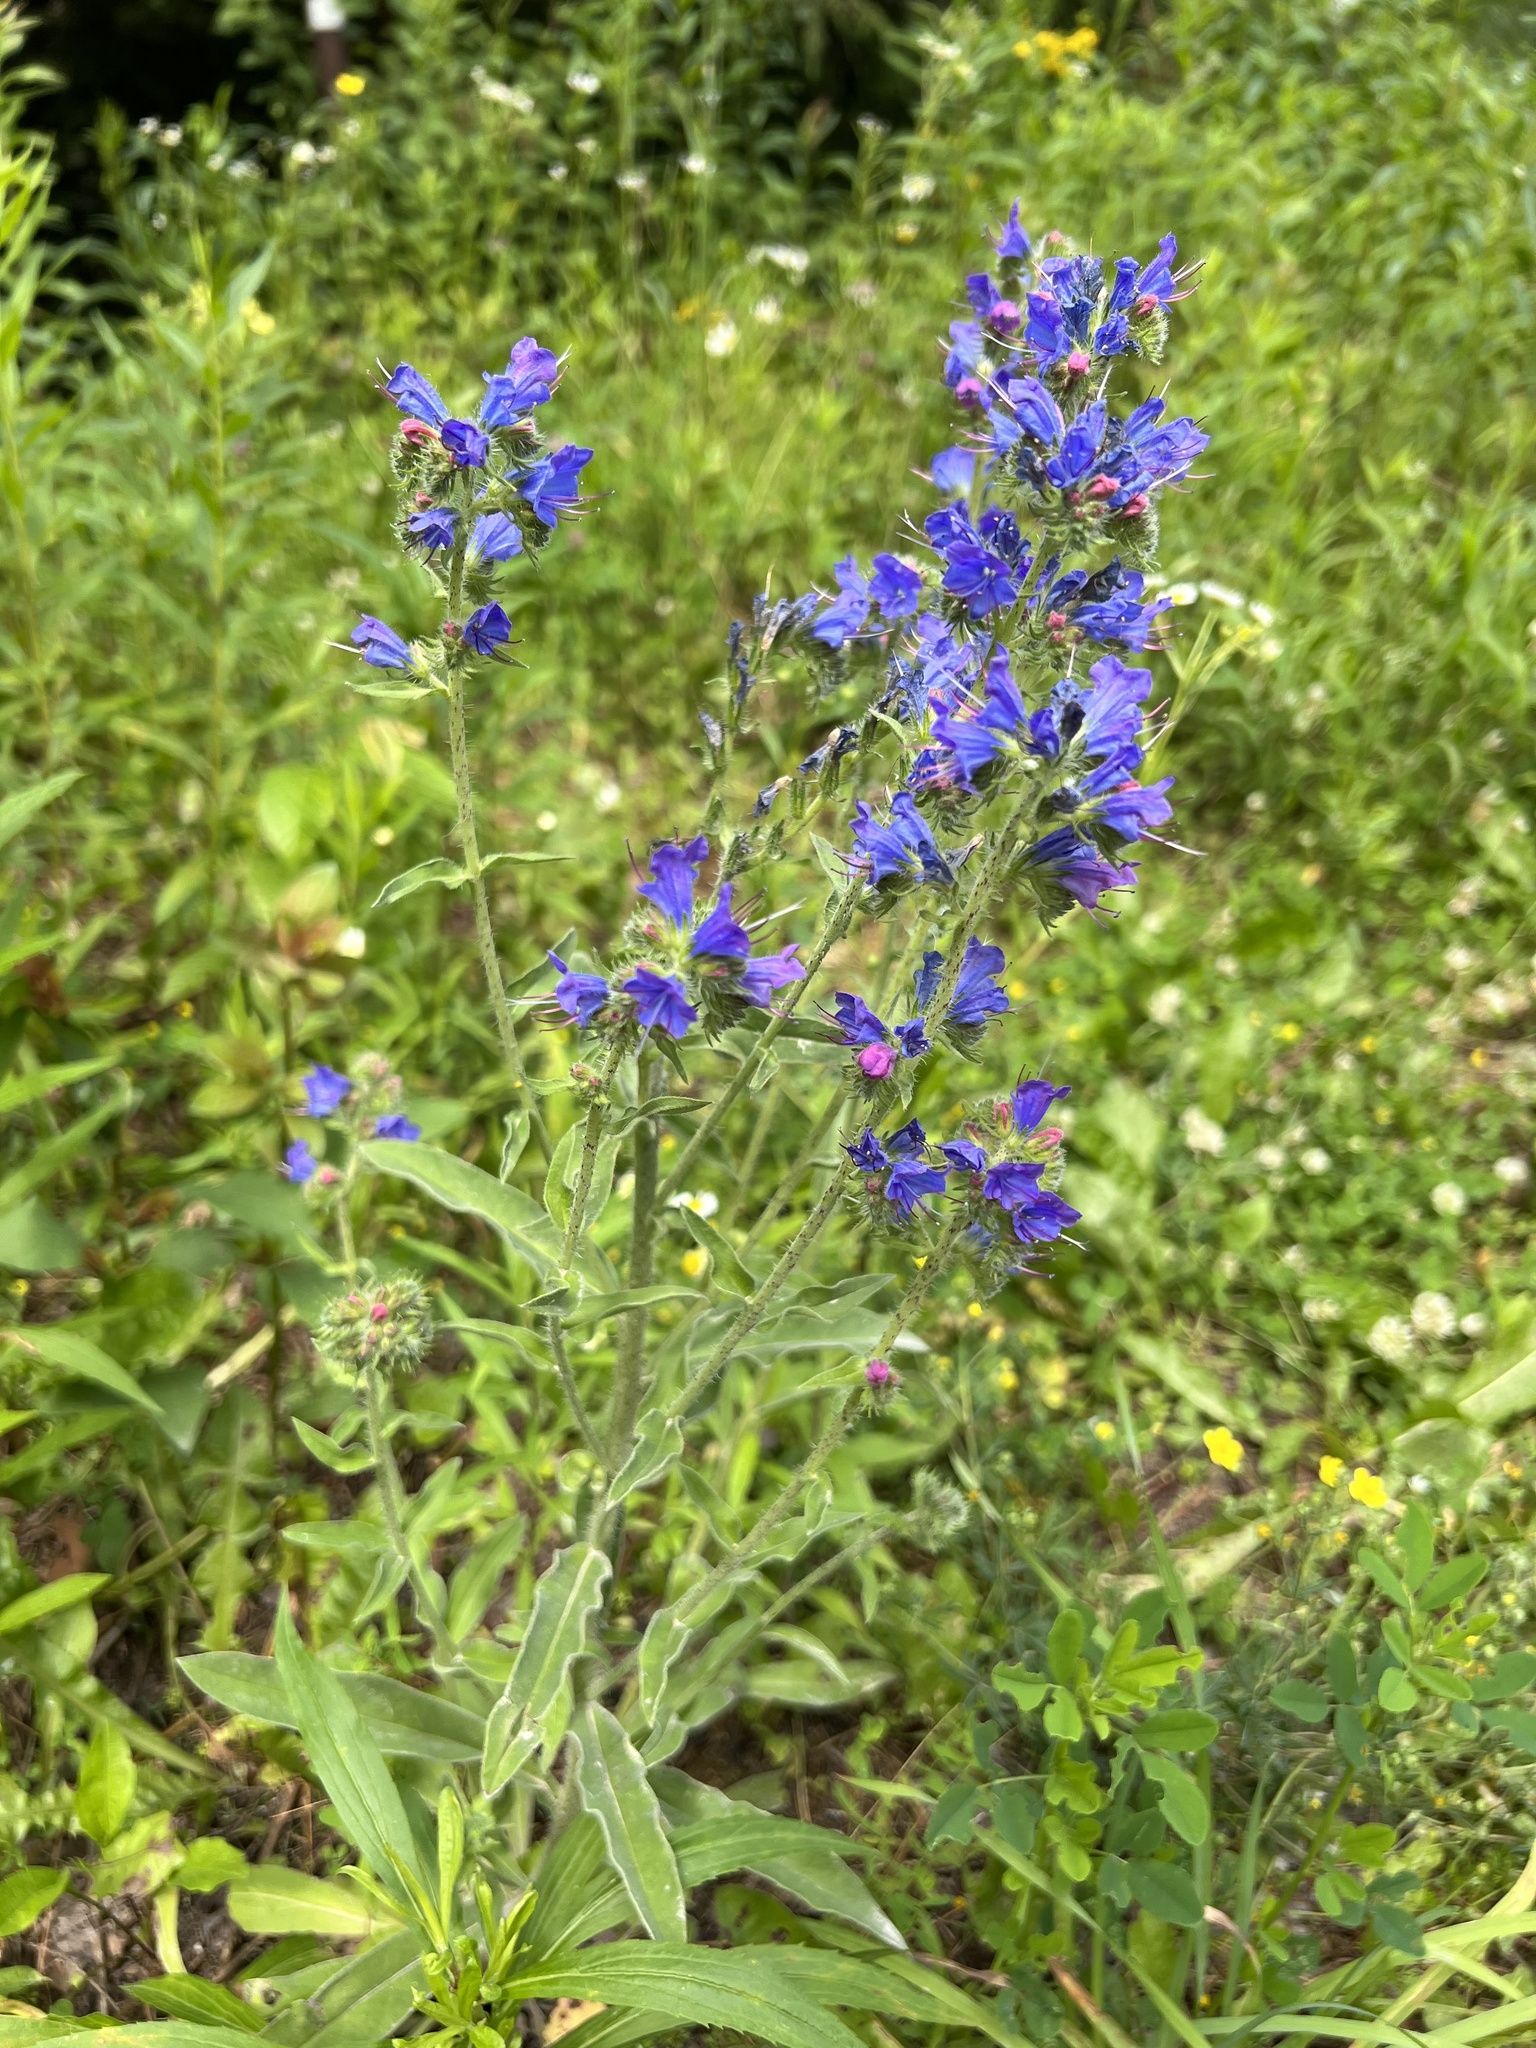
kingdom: Plantae
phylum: Tracheophyta
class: Magnoliopsida
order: Boraginales
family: Boraginaceae
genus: Echium
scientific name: Echium vulgare
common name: Common viper's bugloss
